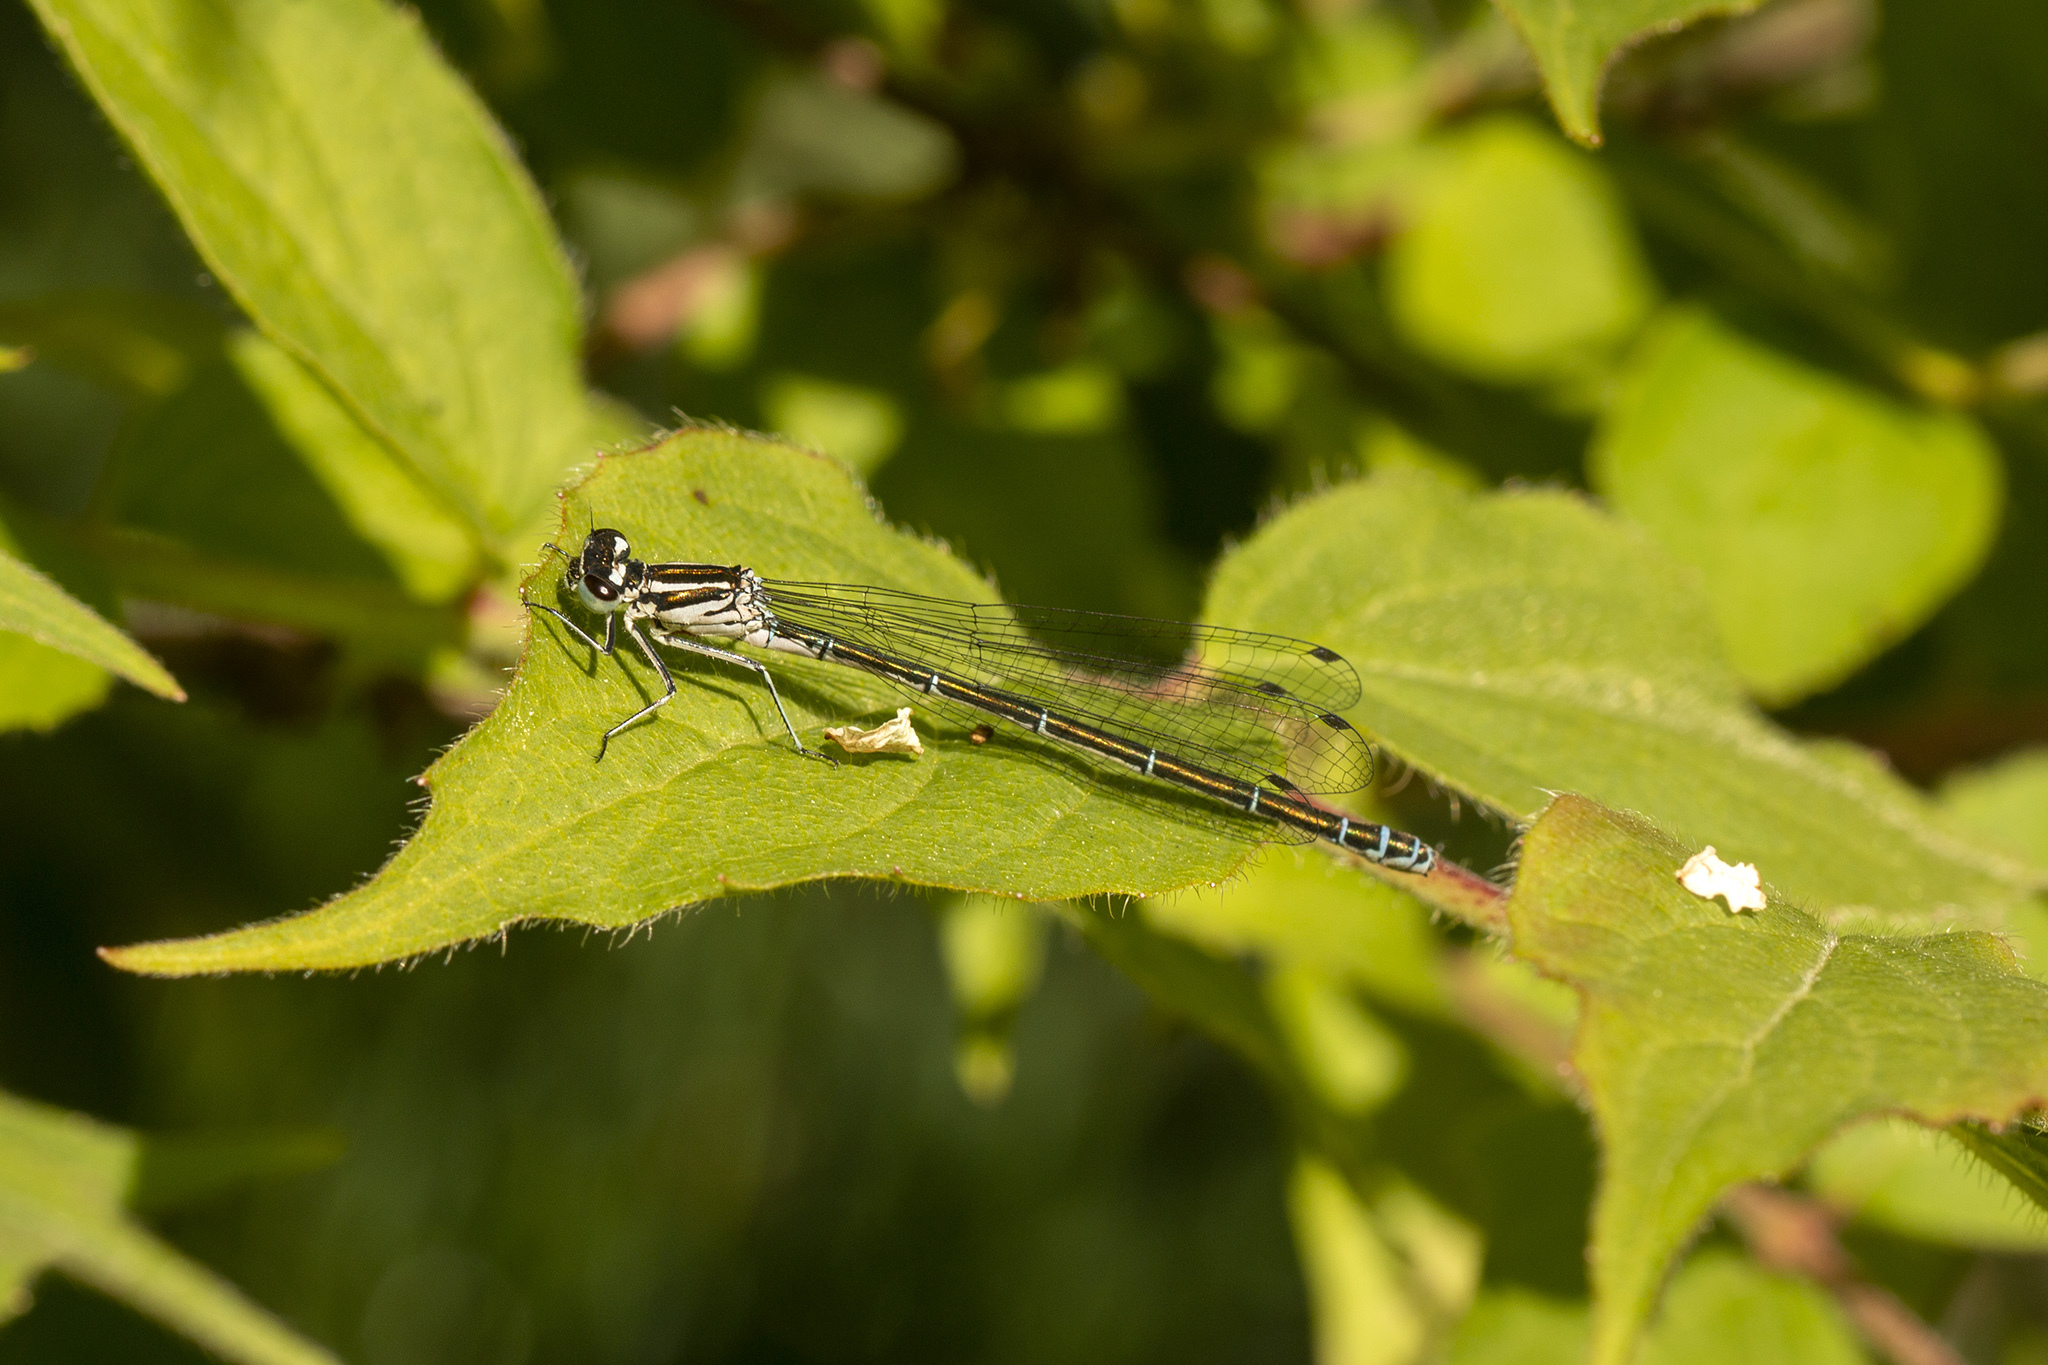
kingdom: Animalia
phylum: Arthropoda
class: Insecta
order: Odonata
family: Coenagrionidae
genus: Coenagrion
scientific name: Coenagrion puella
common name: Azure damselfly
